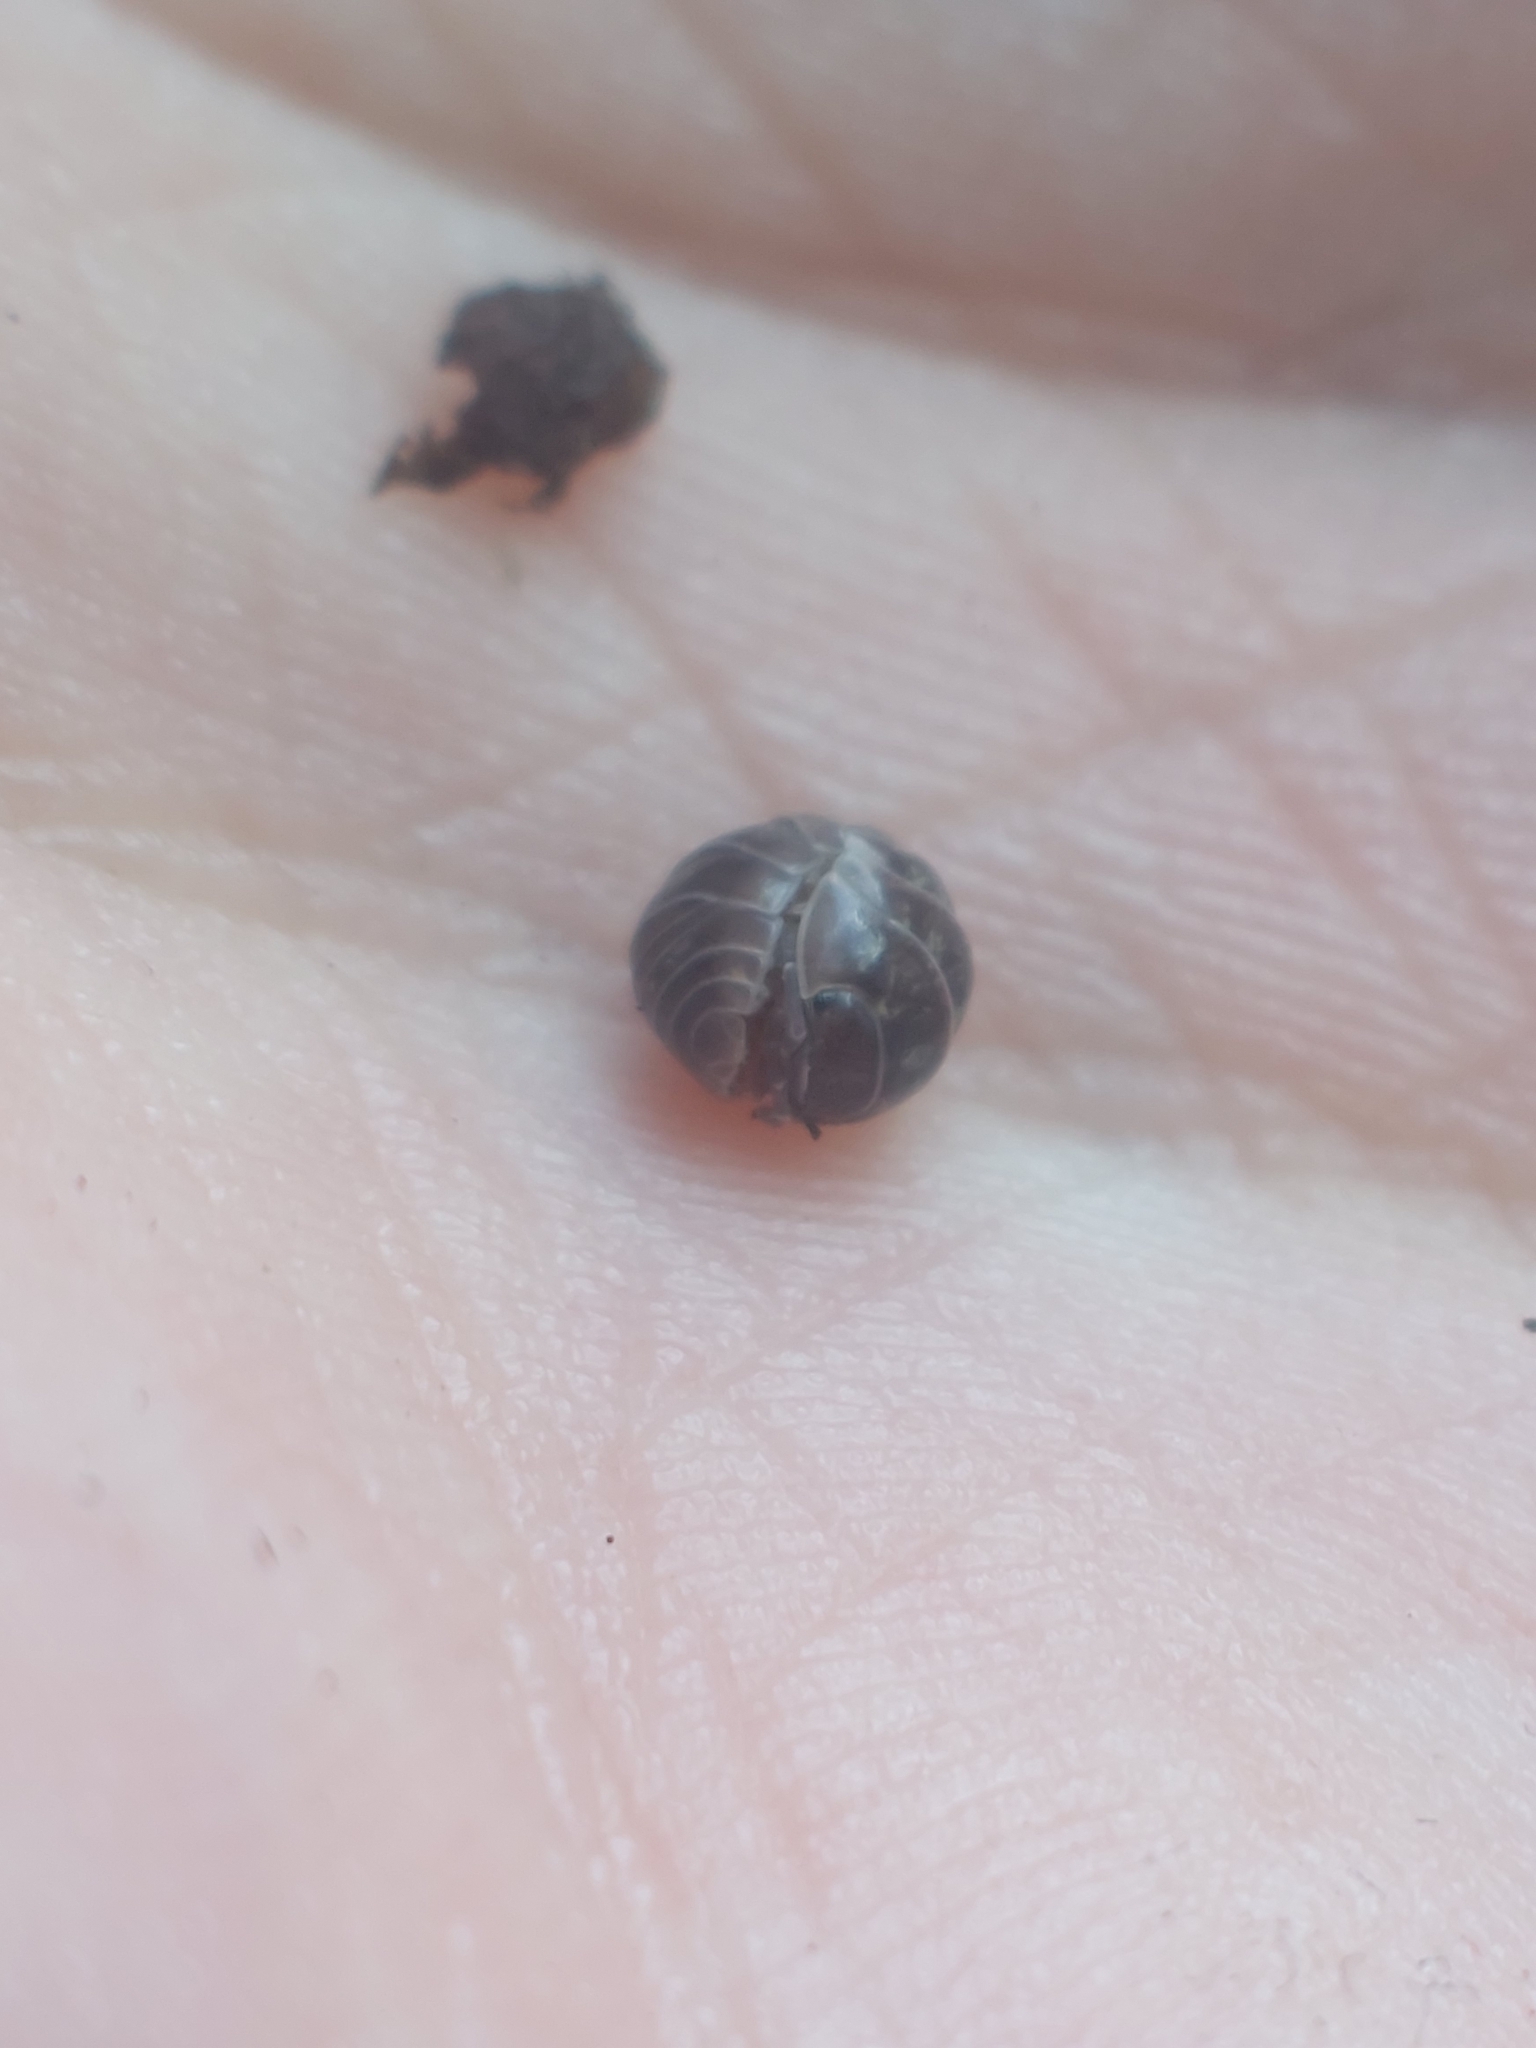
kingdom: Animalia
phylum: Arthropoda
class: Malacostraca
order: Isopoda
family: Armadillidiidae
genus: Armadillidium
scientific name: Armadillidium vulgare
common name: Common pill woodlouse
